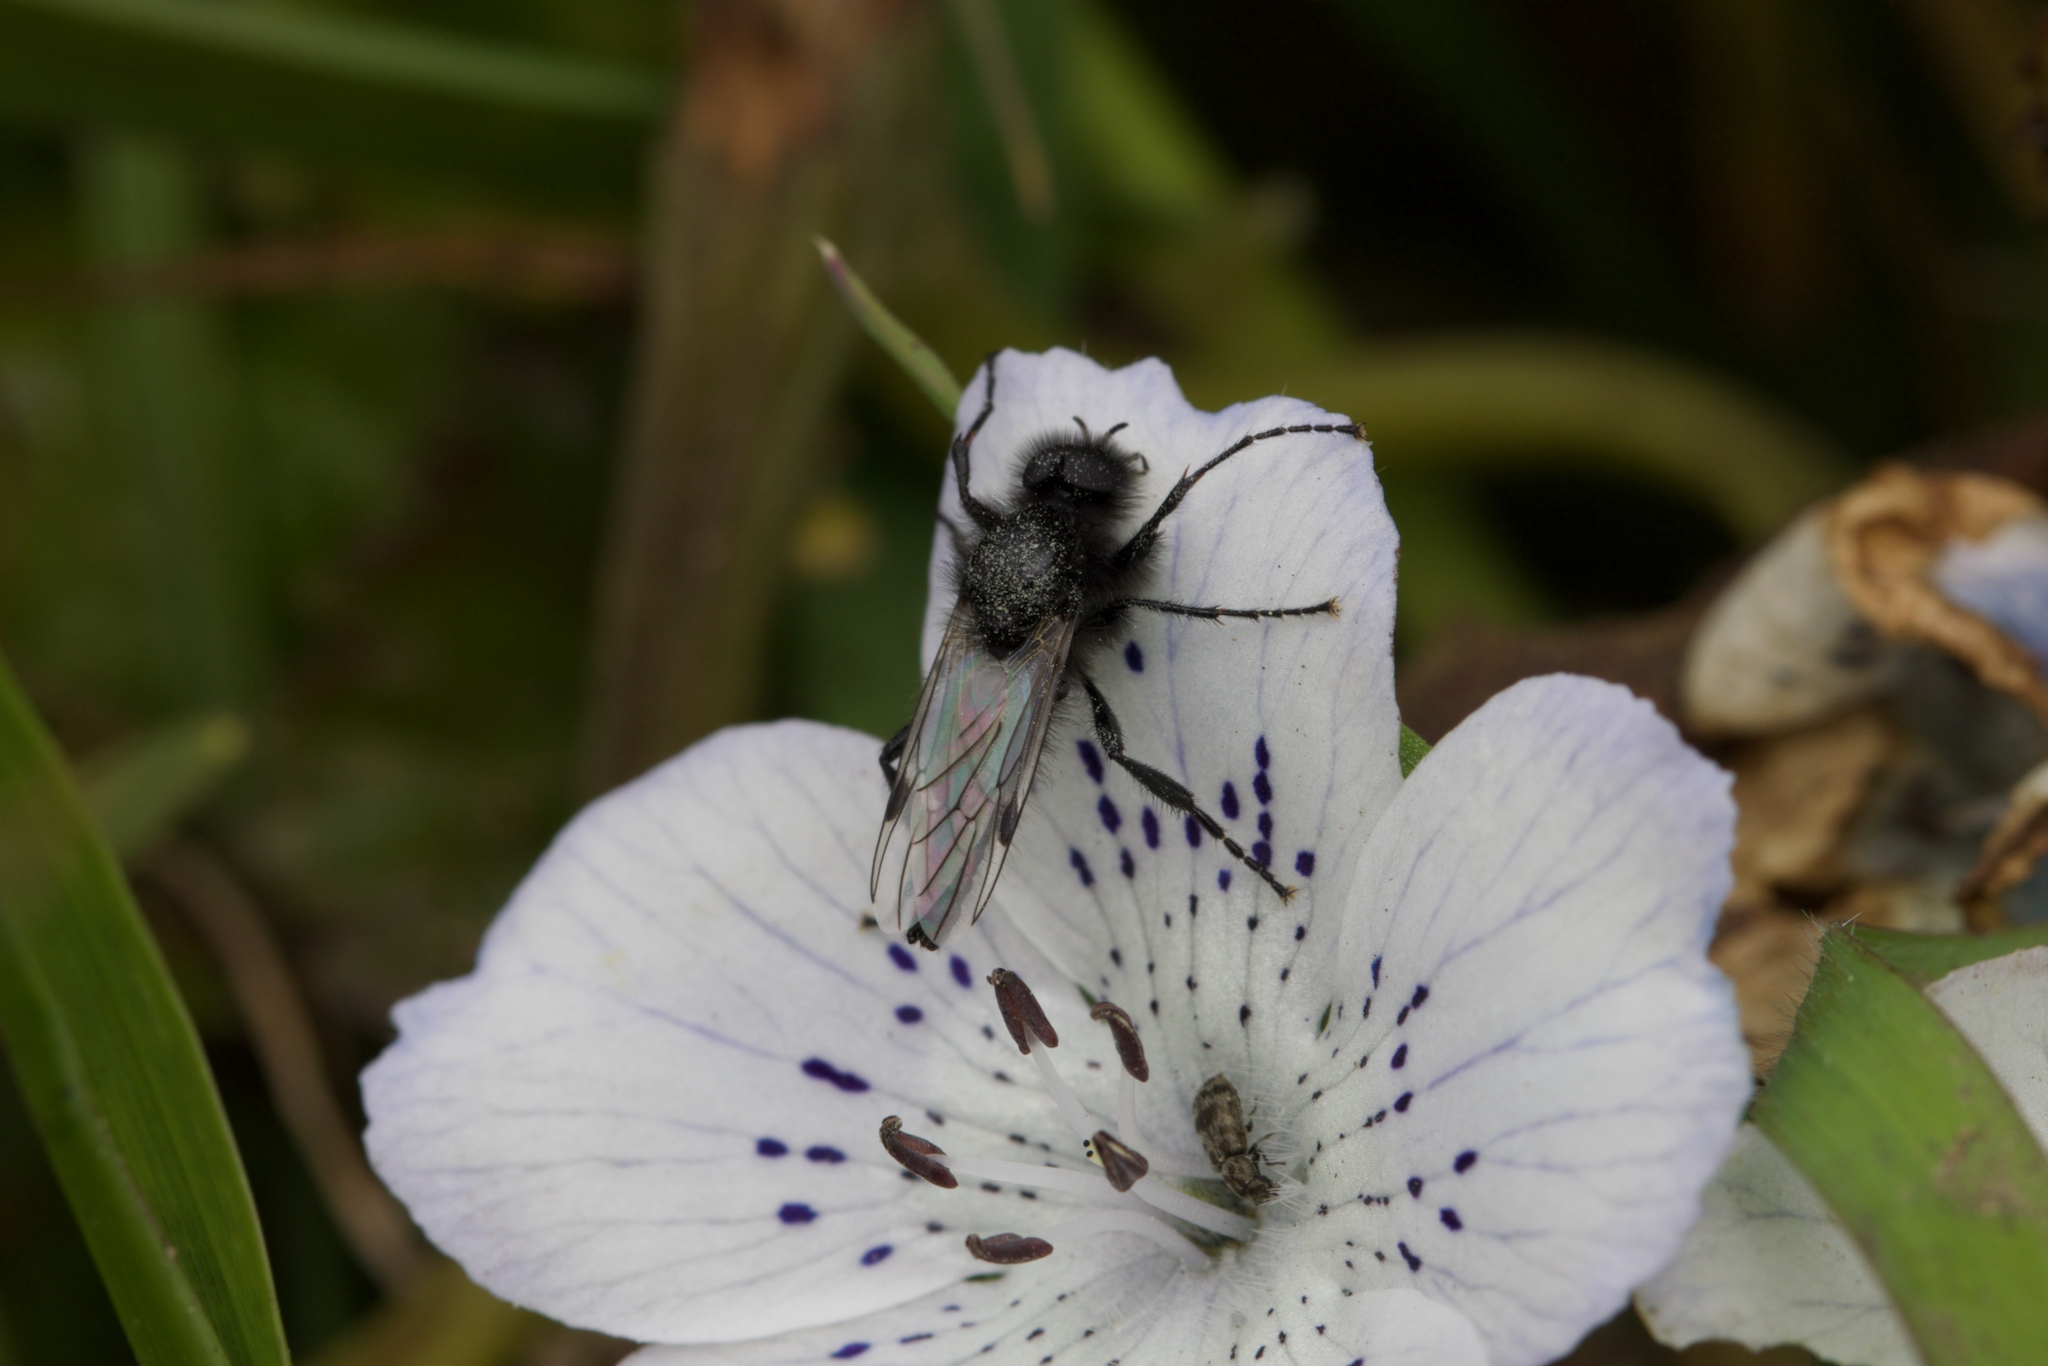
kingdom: Animalia
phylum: Arthropoda
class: Insecta
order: Diptera
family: Bibionidae
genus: Bibio
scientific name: Bibio necotus
